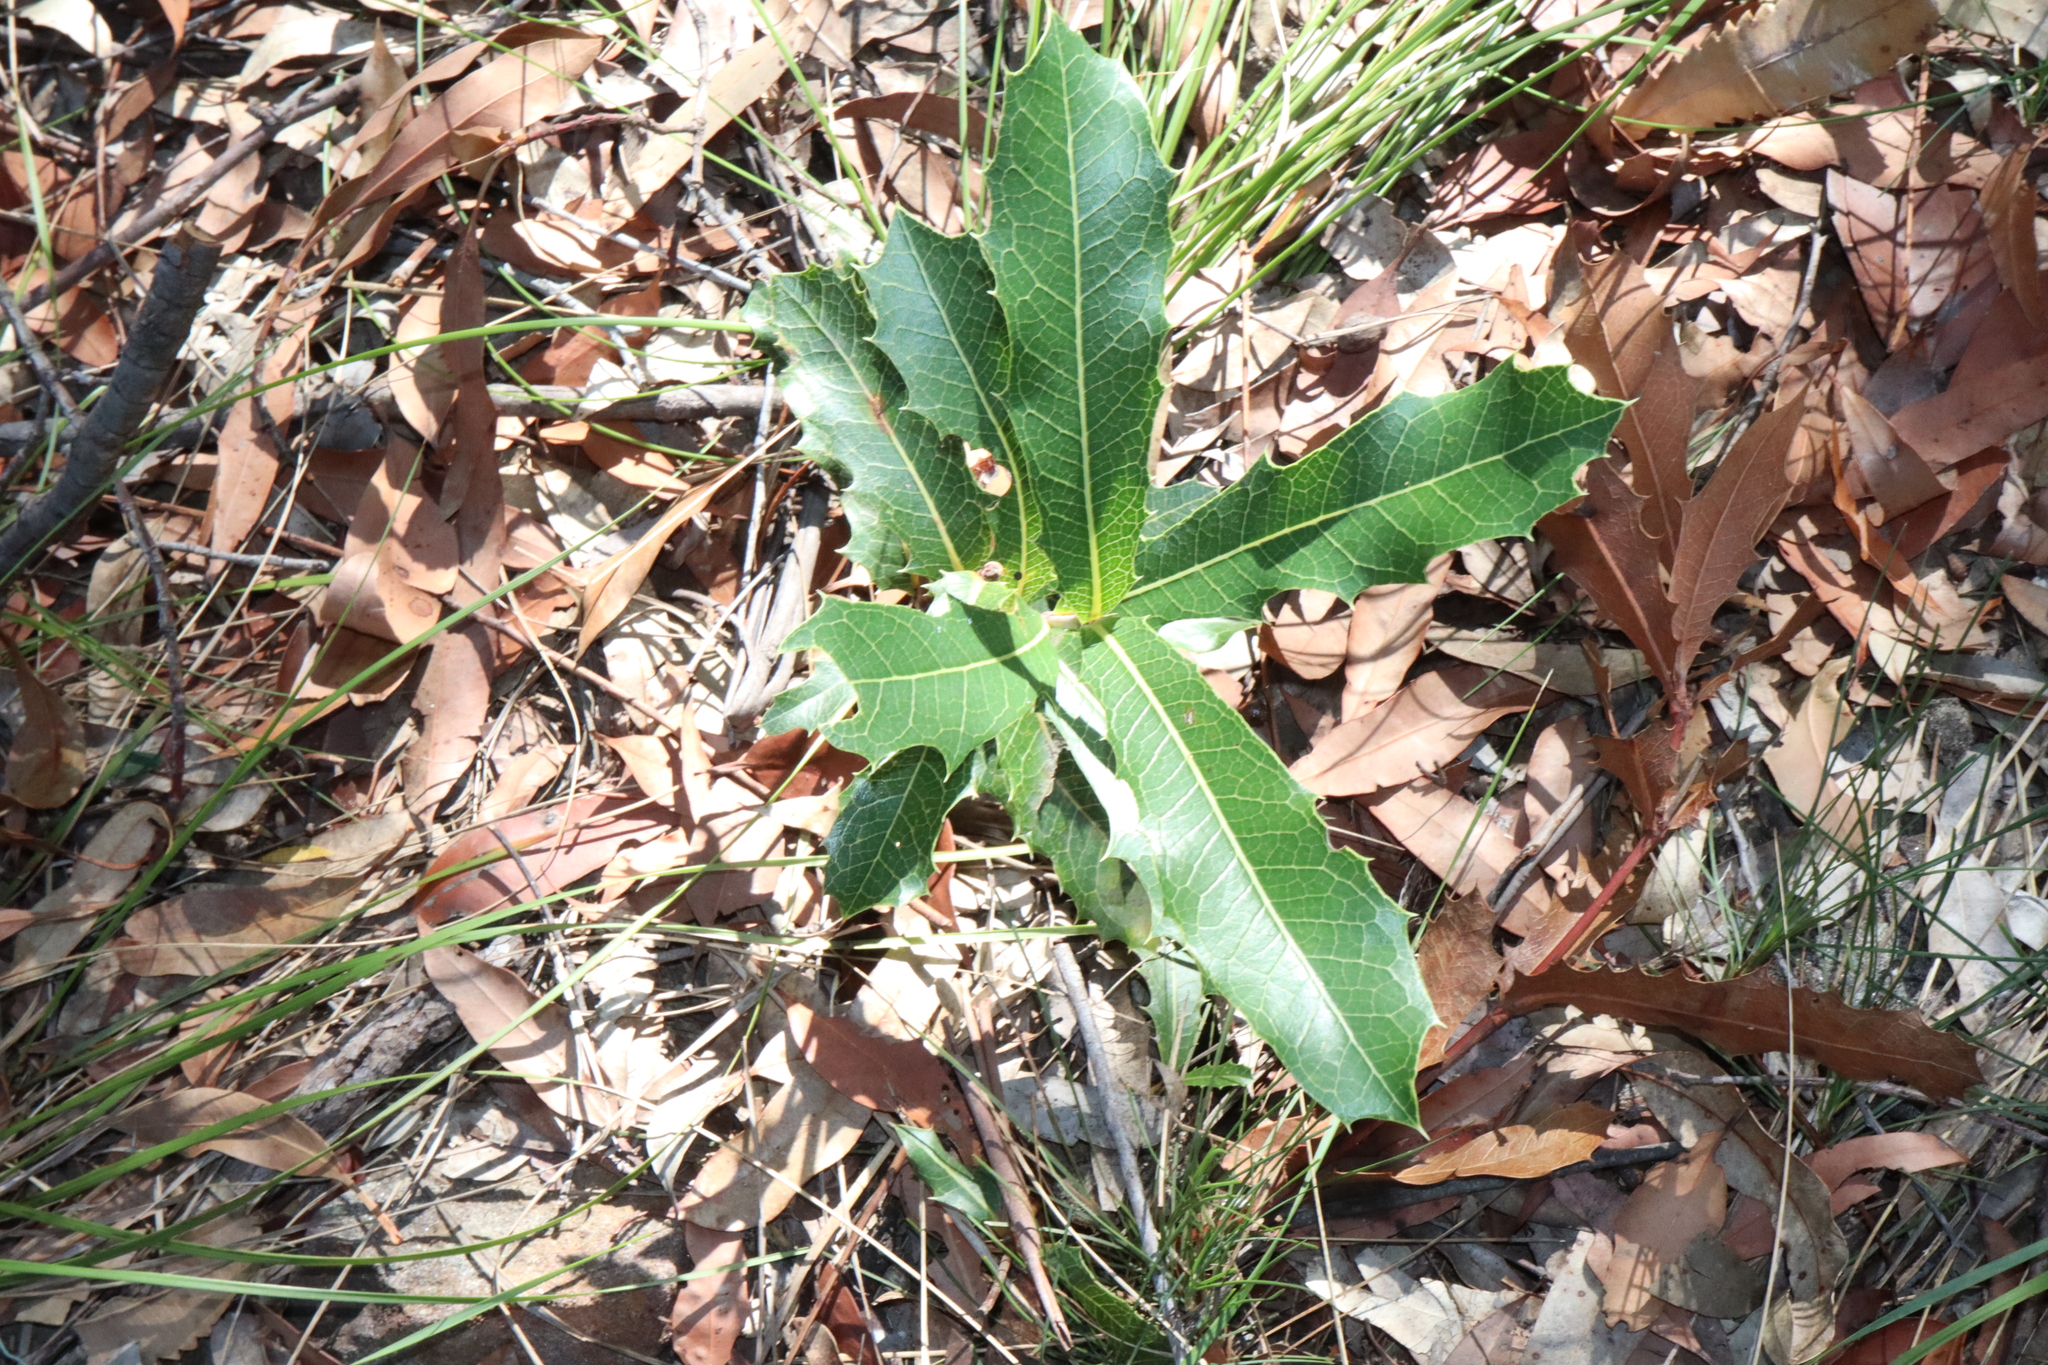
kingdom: Plantae
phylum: Tracheophyta
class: Magnoliopsida
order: Proteales
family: Proteaceae
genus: Xylomelum
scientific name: Xylomelum pyriforme
